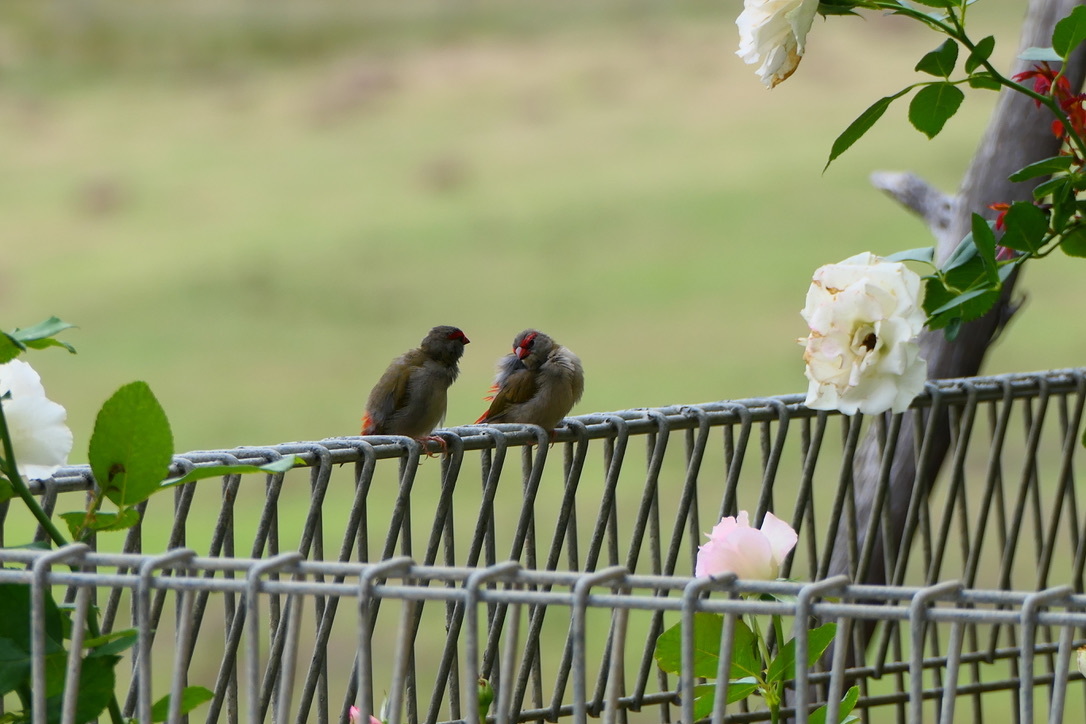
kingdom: Animalia
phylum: Chordata
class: Aves
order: Passeriformes
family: Estrildidae
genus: Neochmia
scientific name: Neochmia temporalis
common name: Red-browed finch
